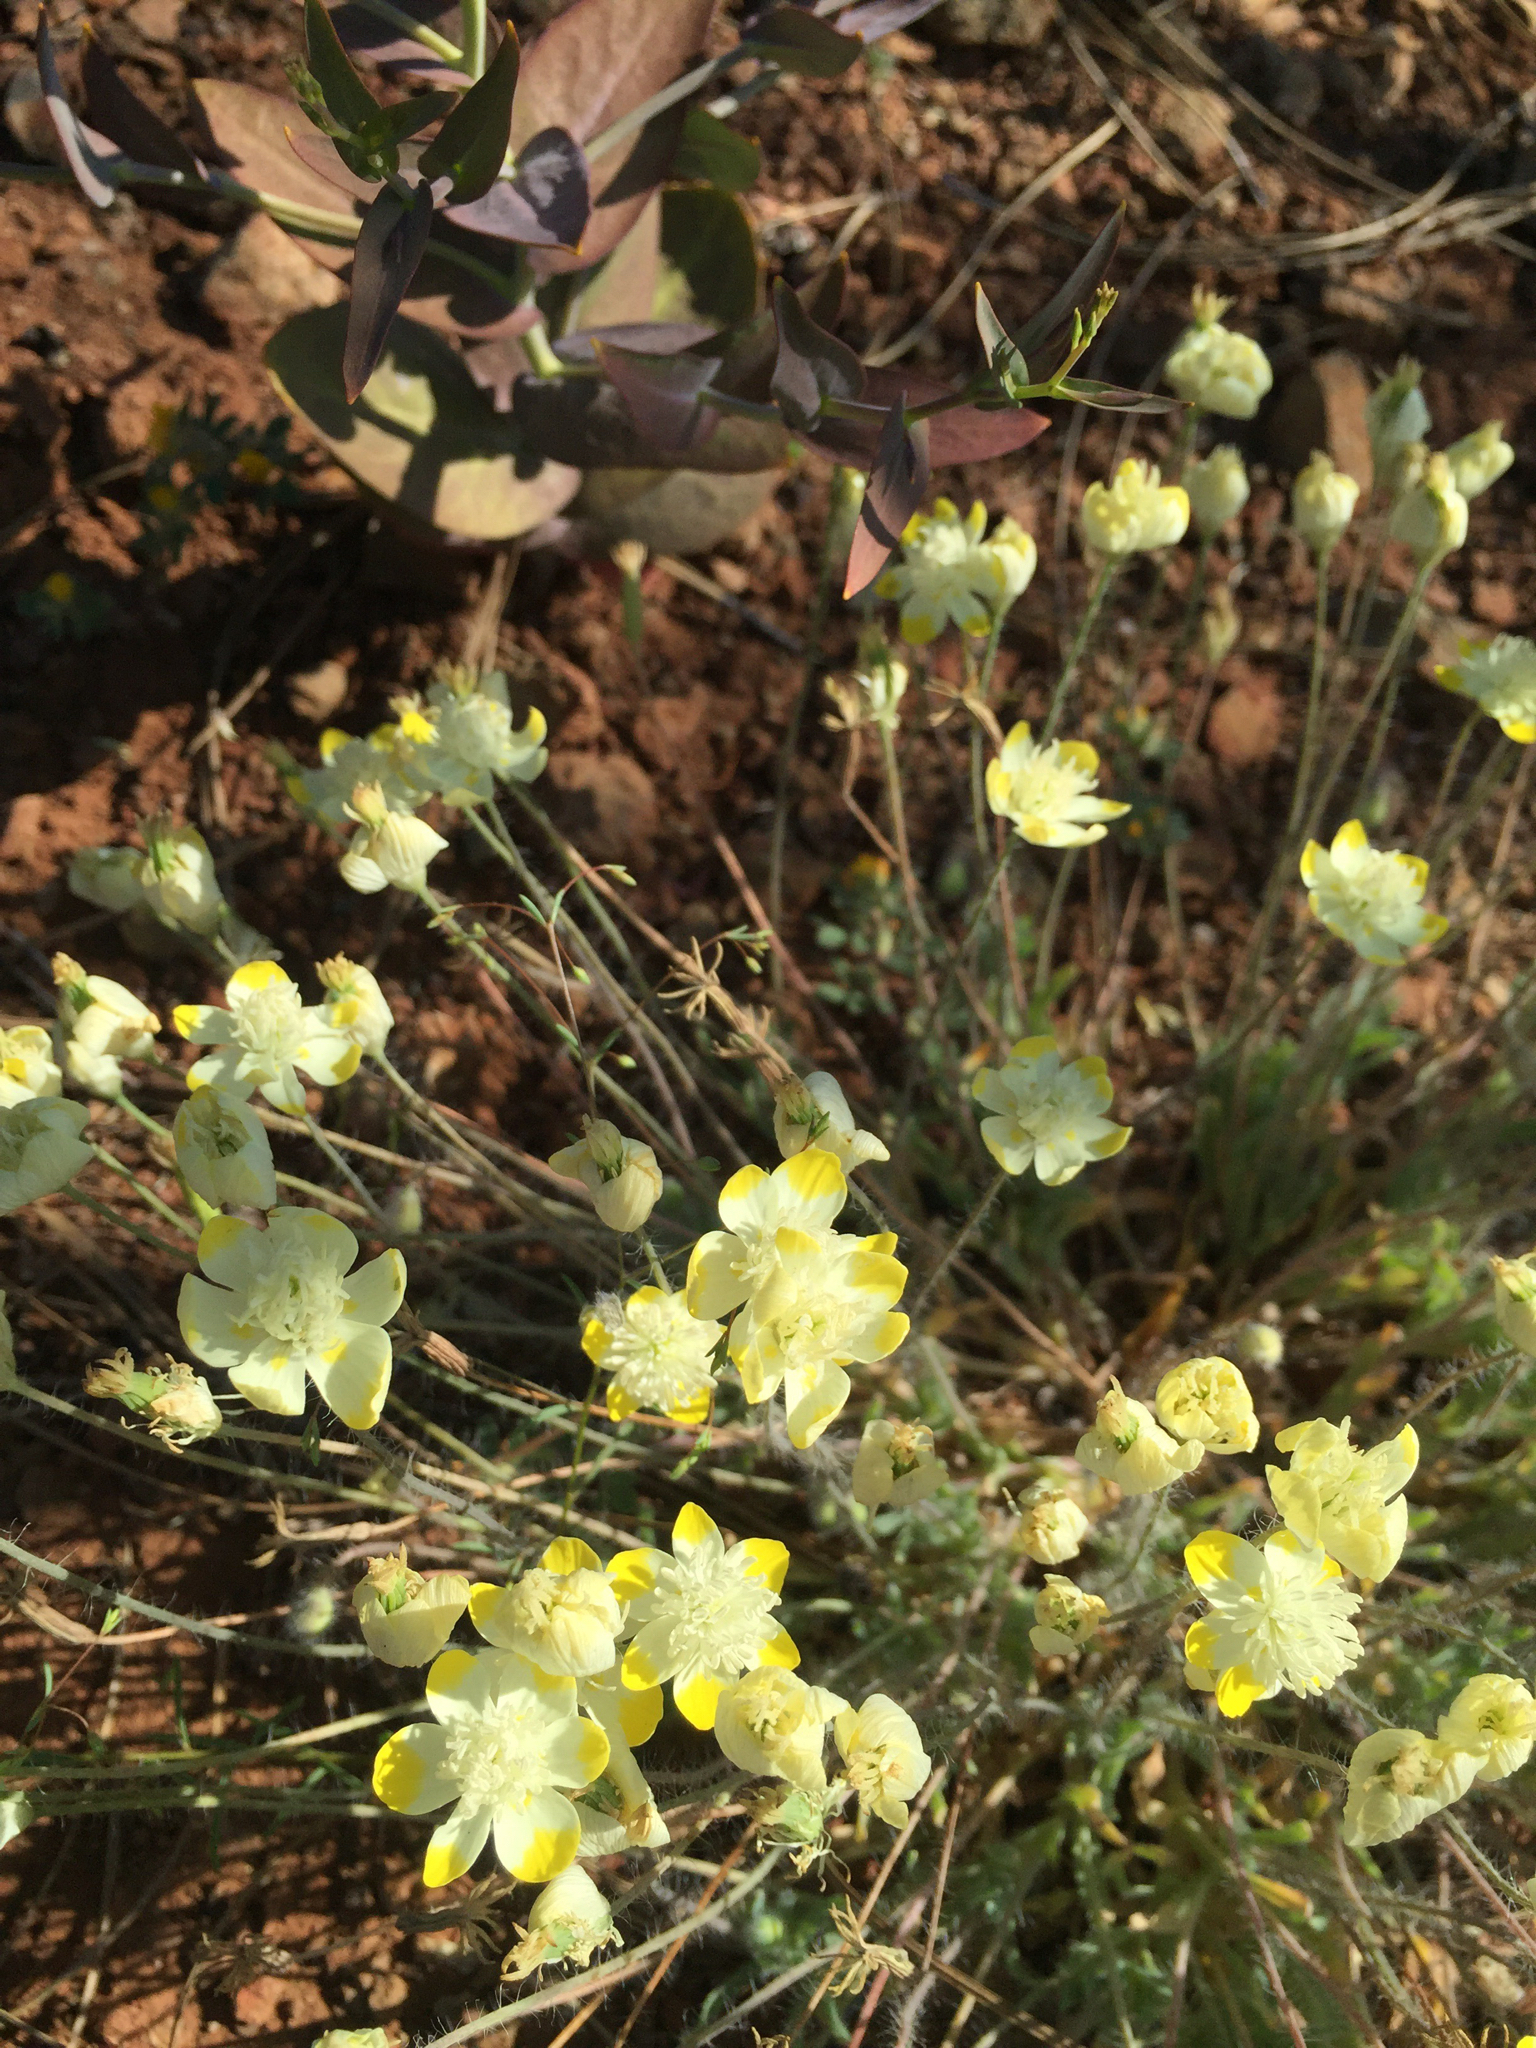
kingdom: Plantae
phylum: Tracheophyta
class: Magnoliopsida
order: Ranunculales
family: Papaveraceae
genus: Platystemon
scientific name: Platystemon californicus
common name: Cream-cups
